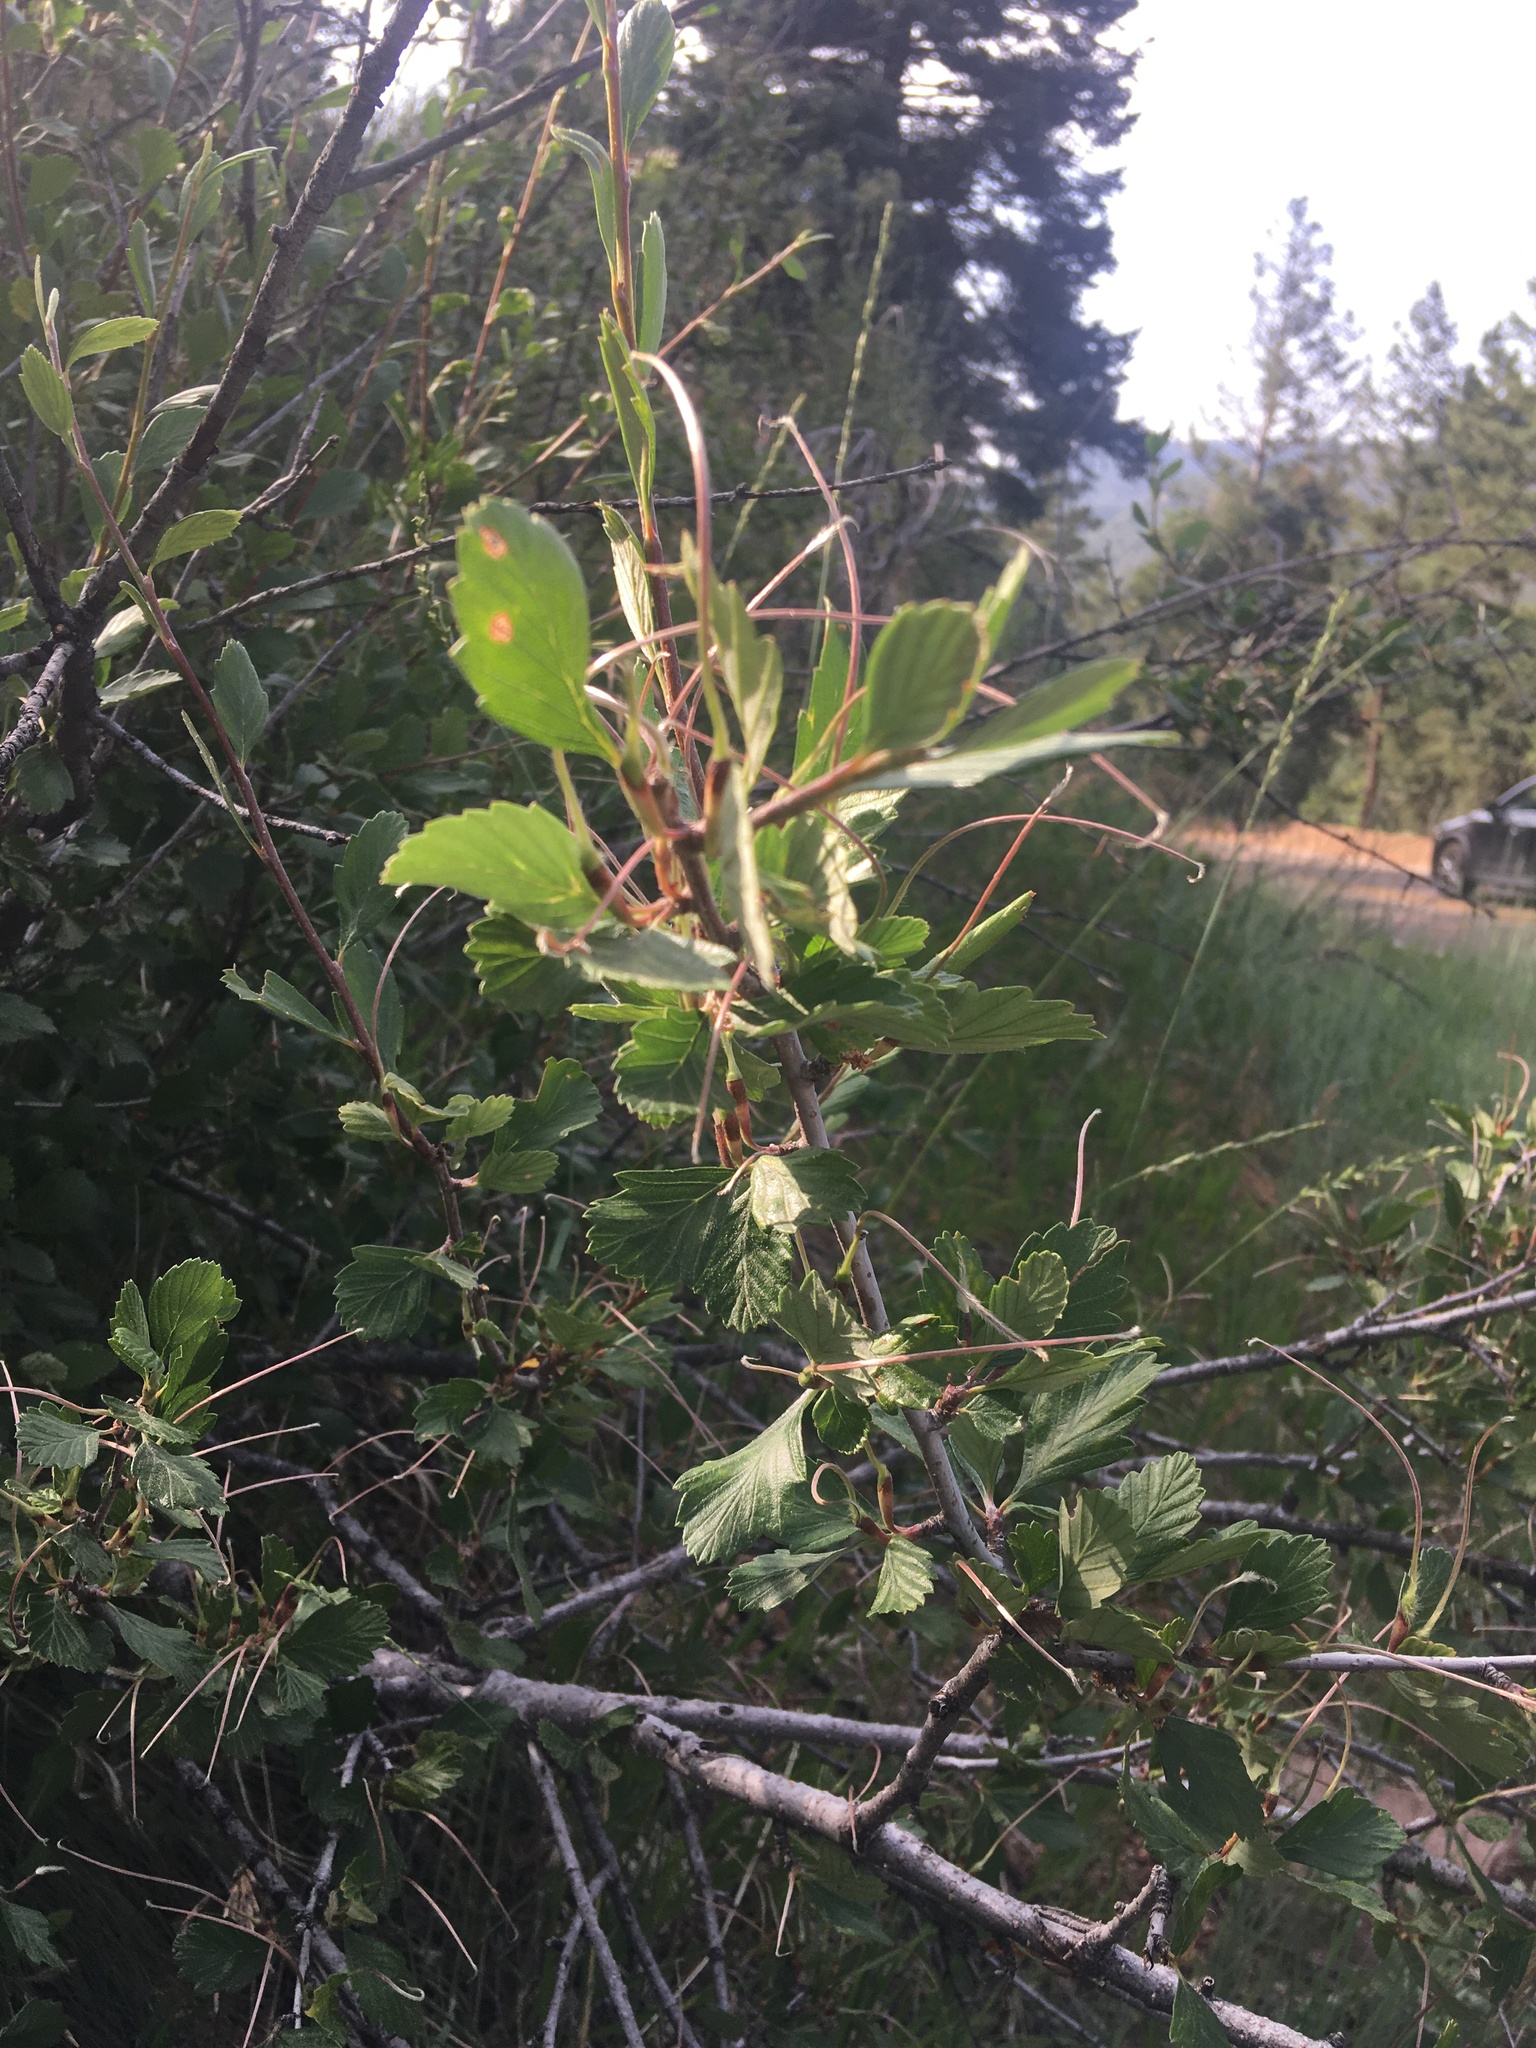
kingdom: Plantae
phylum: Tracheophyta
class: Magnoliopsida
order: Rosales
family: Rosaceae
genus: Cercocarpus
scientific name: Cercocarpus montanus
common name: Alder-leaf cercocarpus
